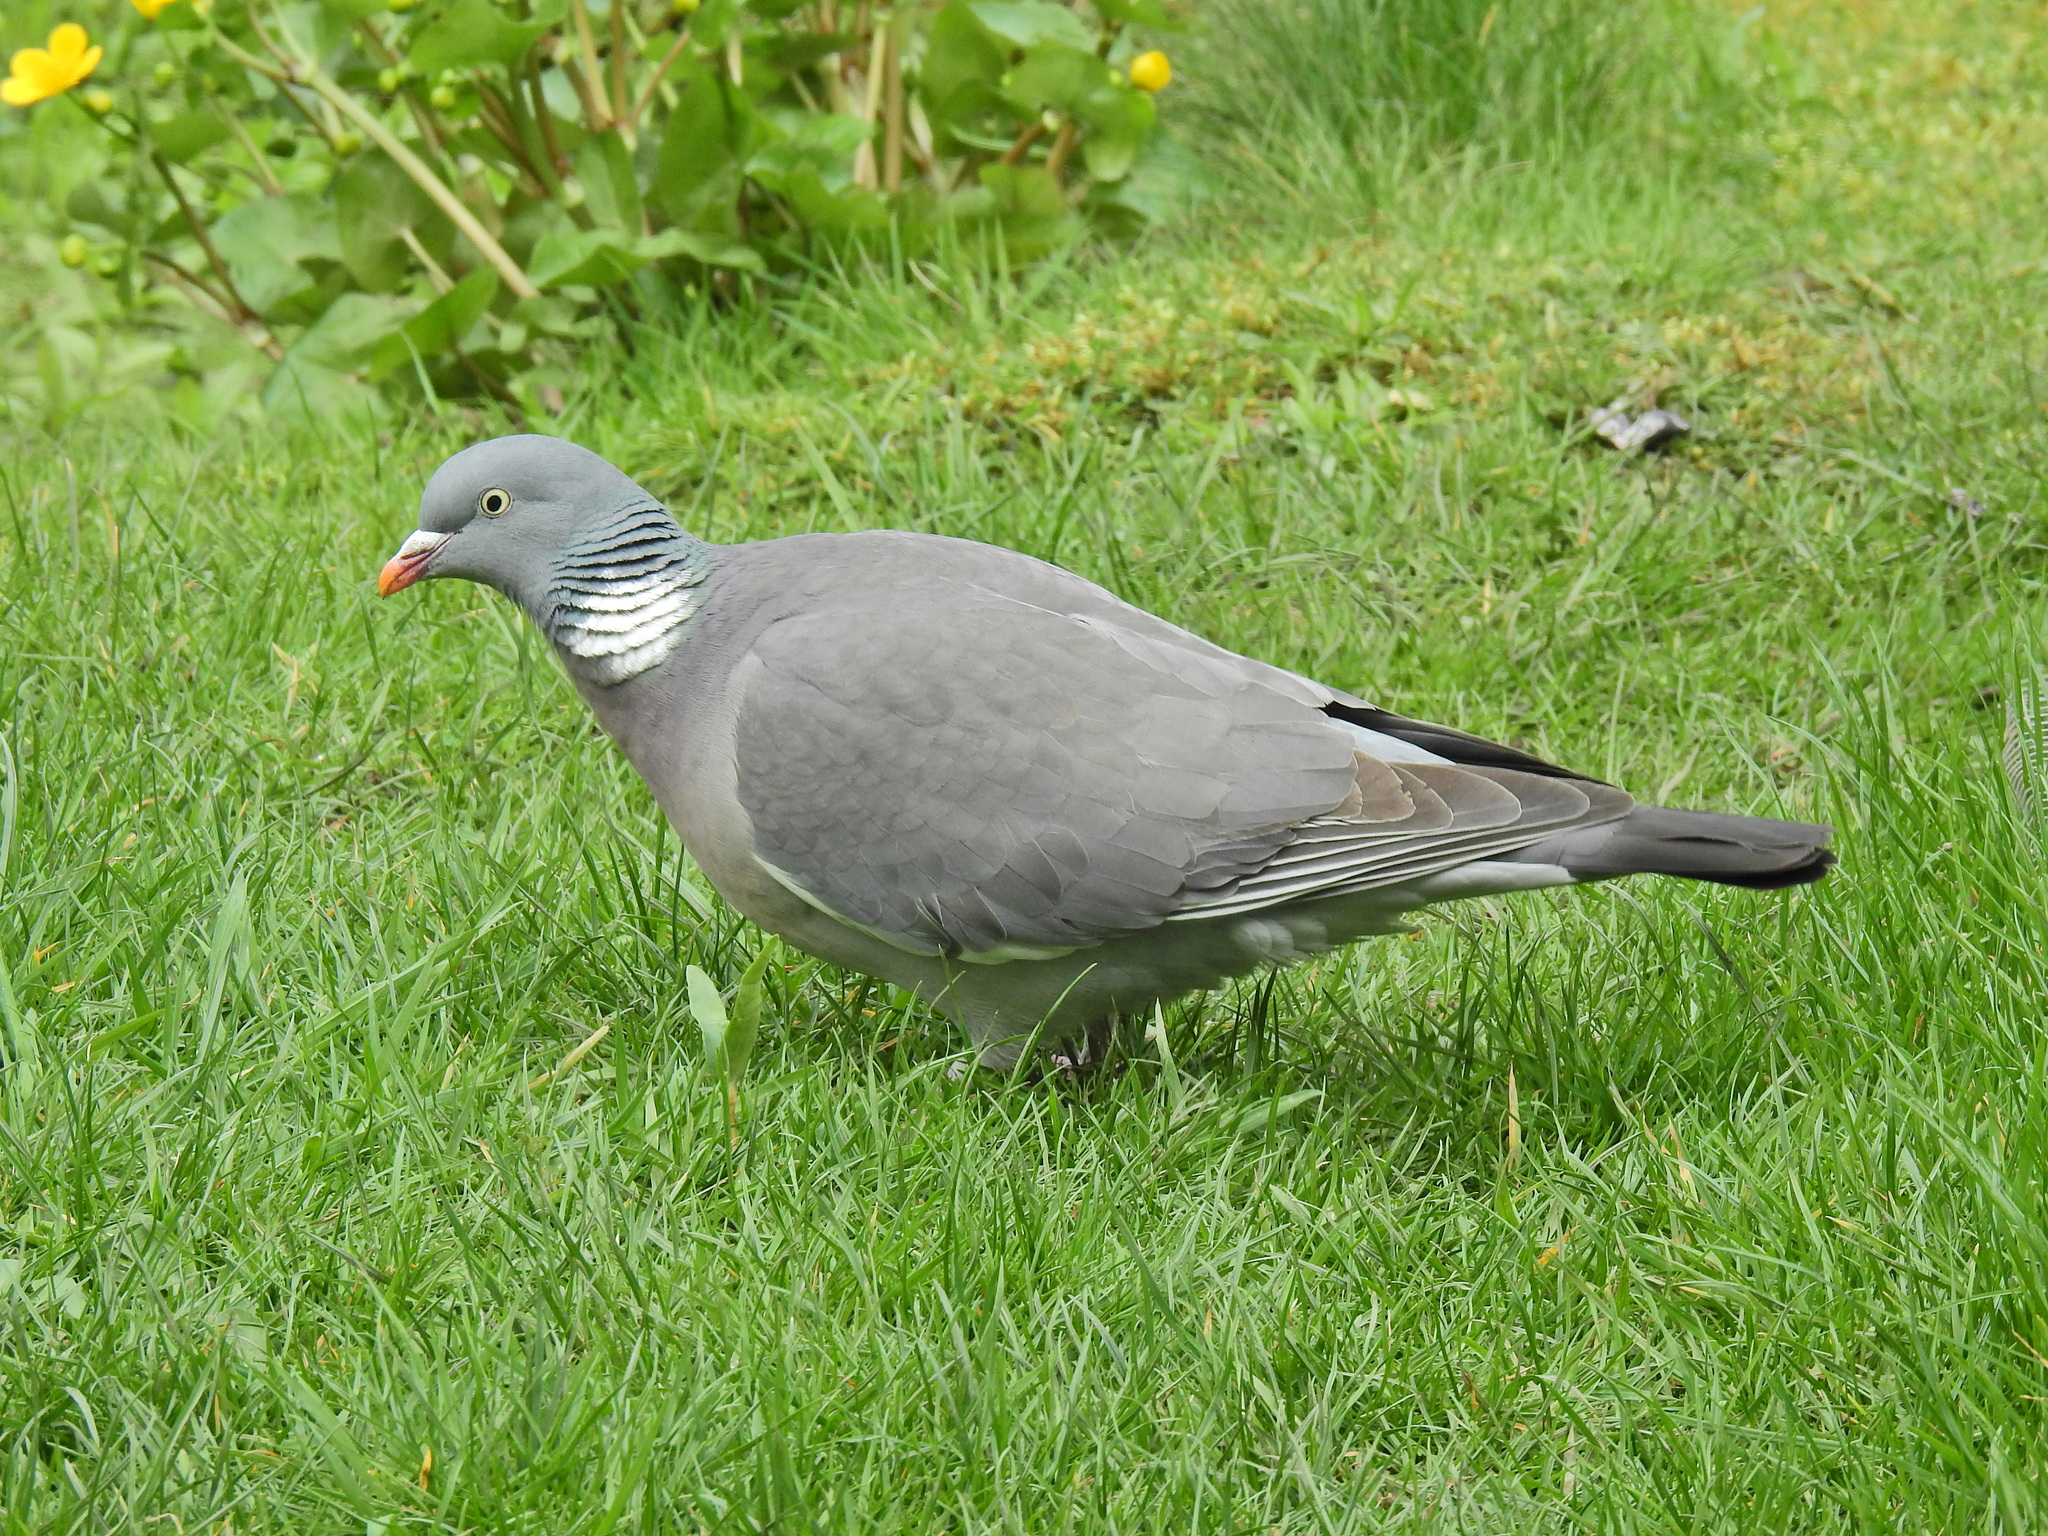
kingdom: Animalia
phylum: Chordata
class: Aves
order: Columbiformes
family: Columbidae
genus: Columba
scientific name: Columba palumbus
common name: Common wood pigeon
